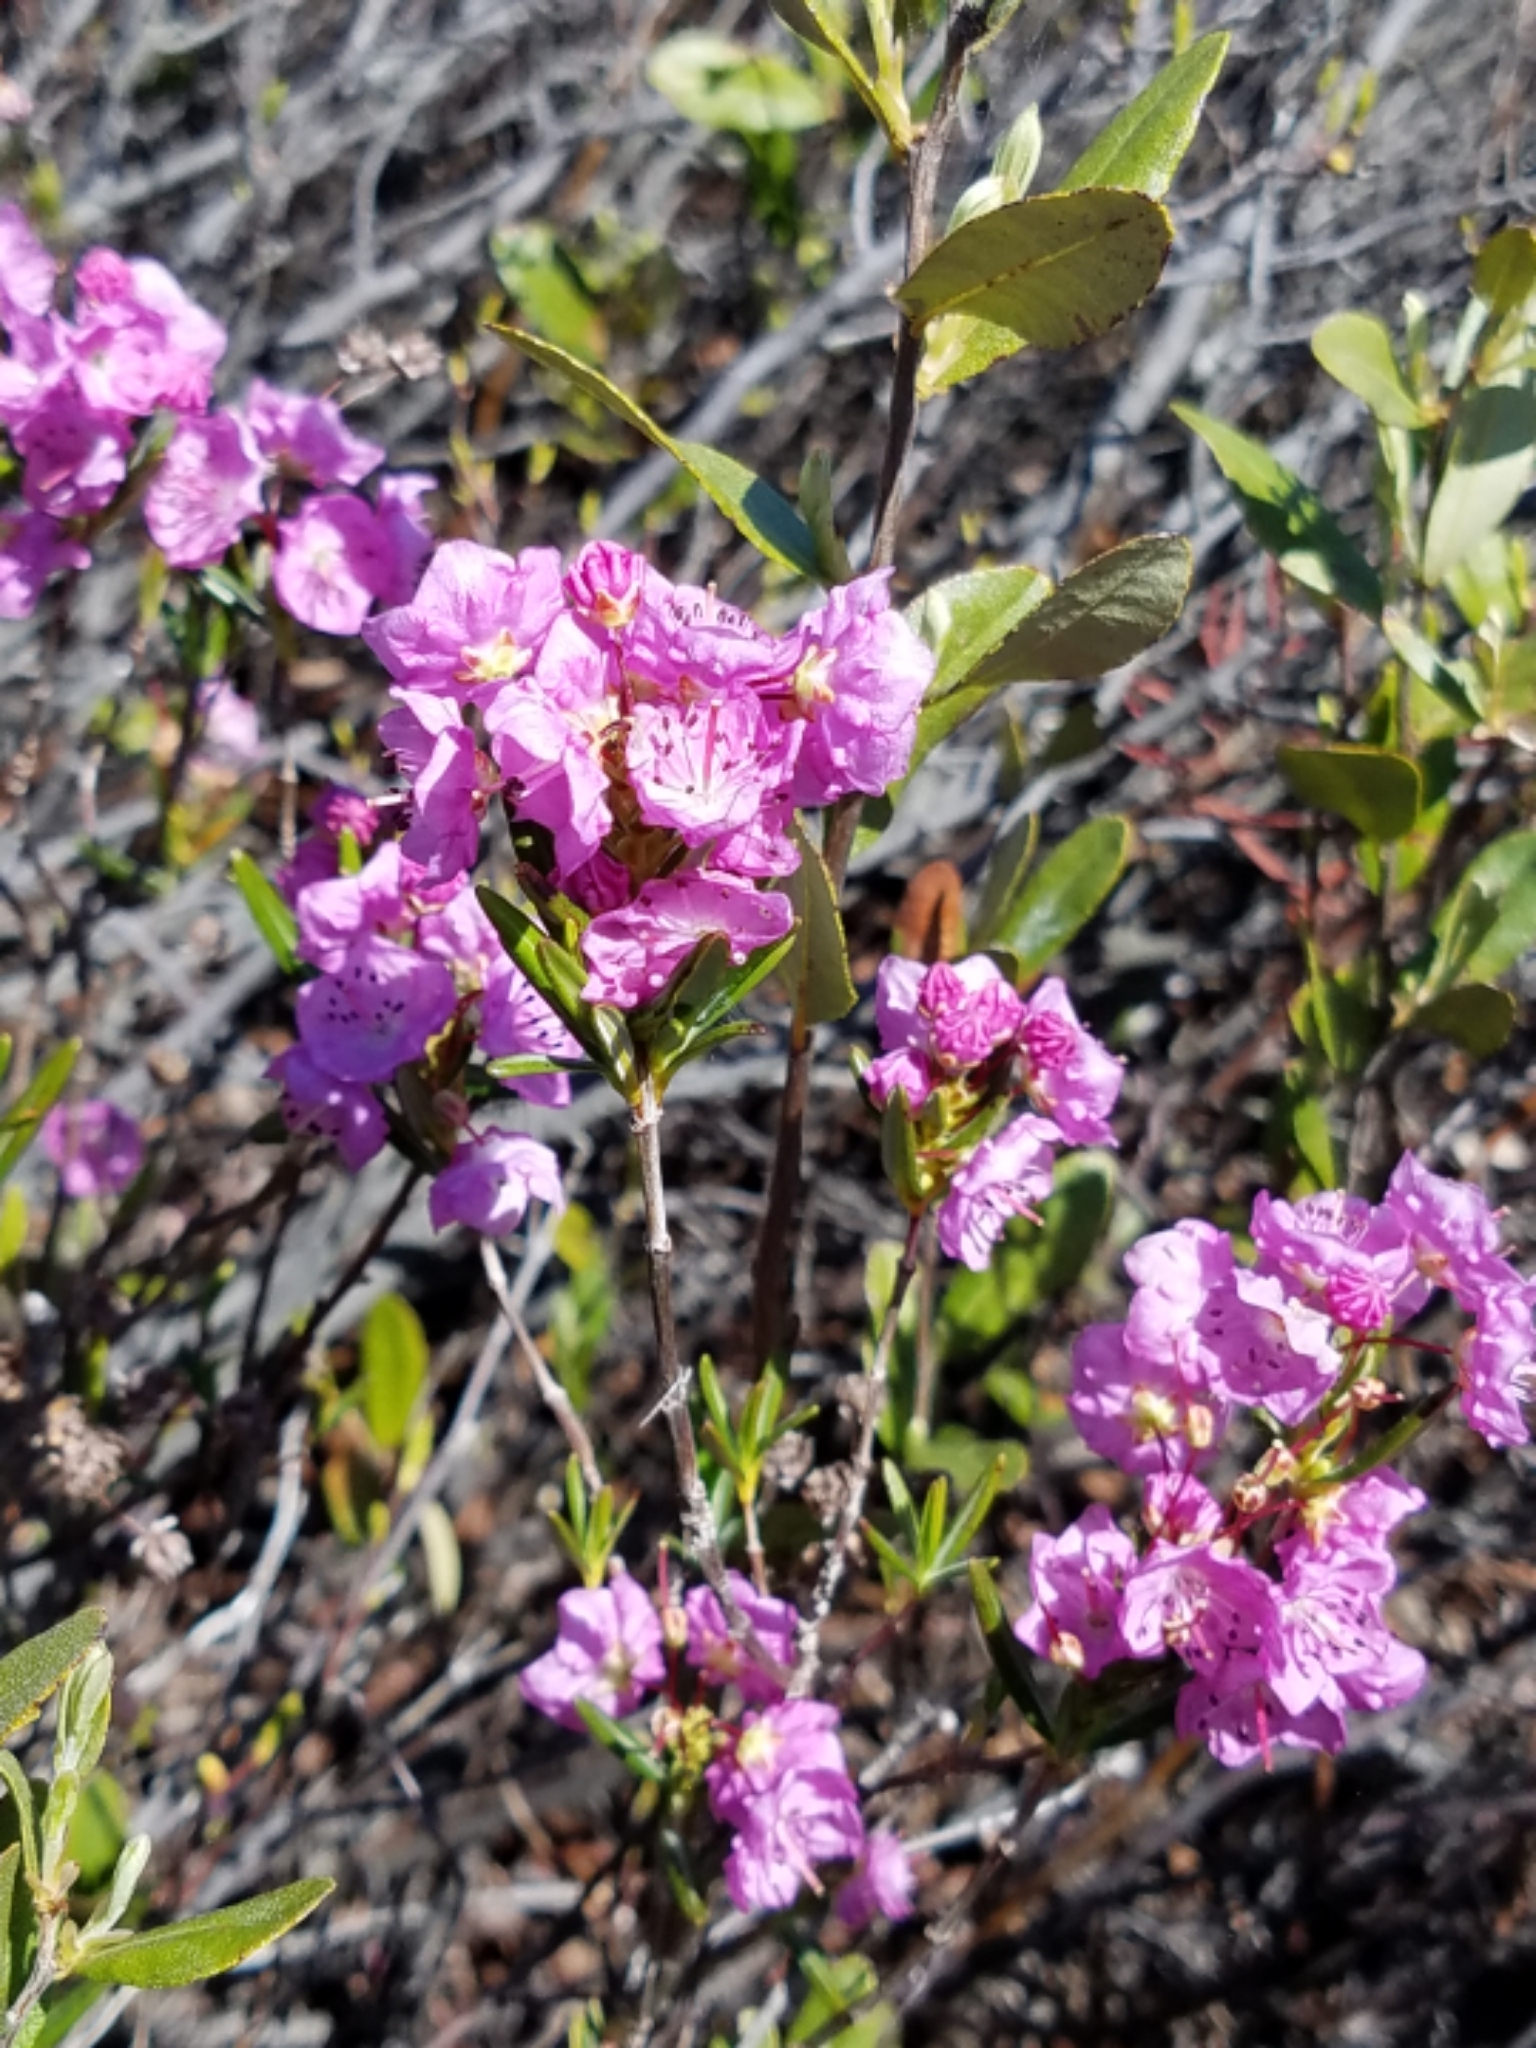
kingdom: Plantae
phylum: Tracheophyta
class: Magnoliopsida
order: Ericales
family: Ericaceae
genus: Kalmia
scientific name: Kalmia polifolia
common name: Bog-laurel
